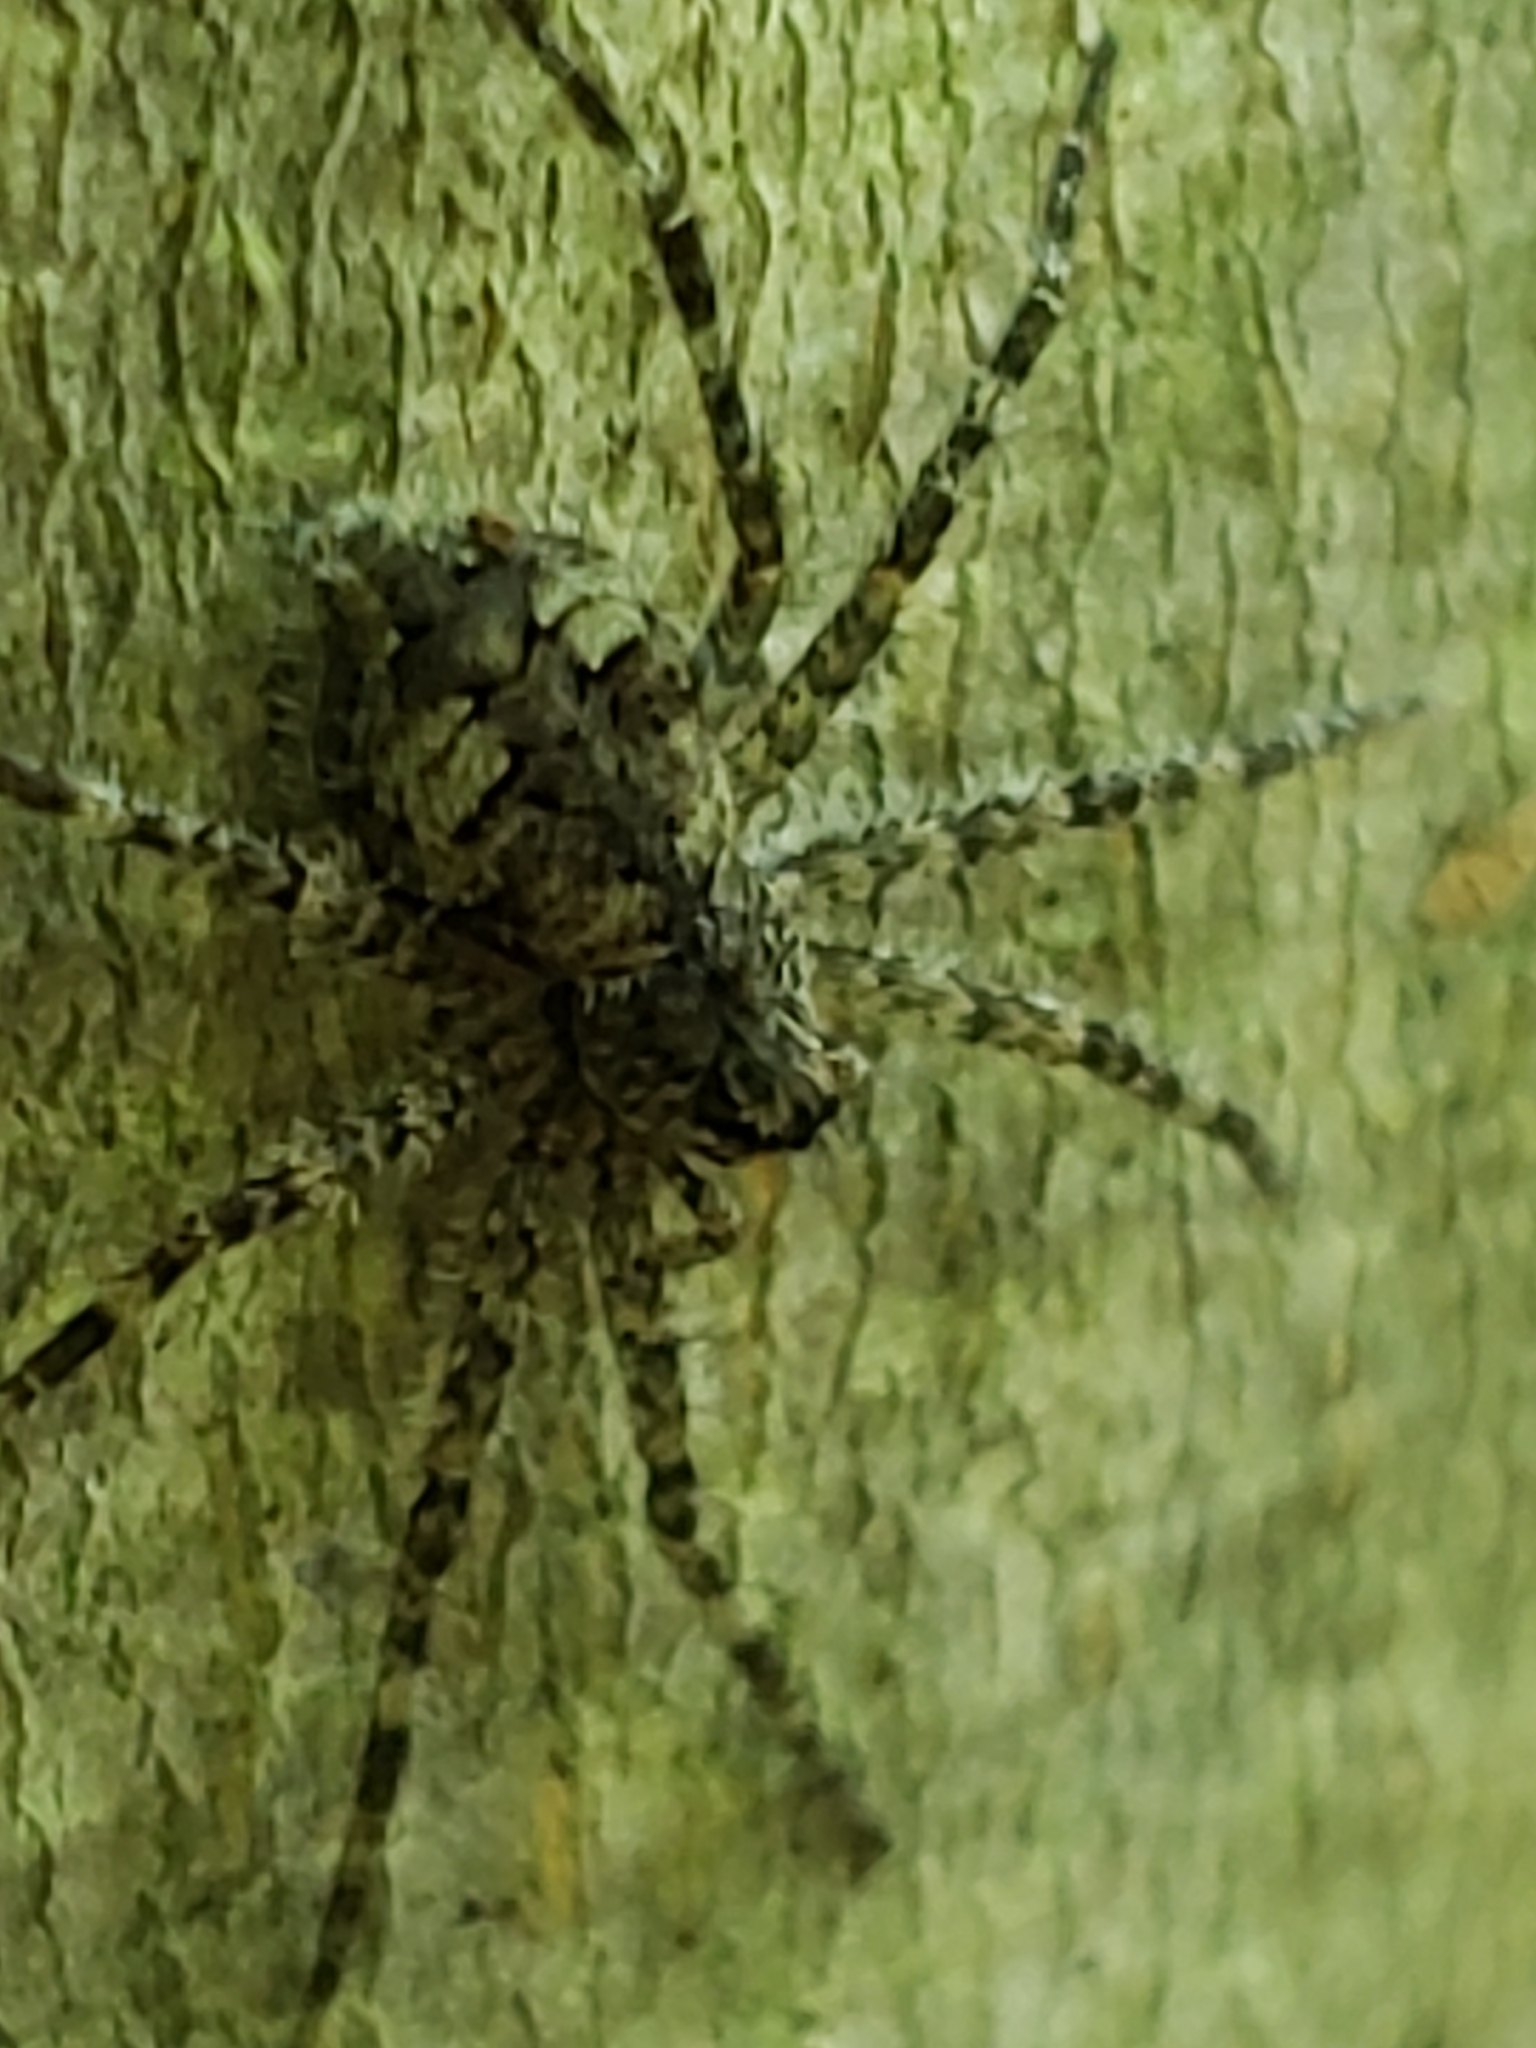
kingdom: Animalia
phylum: Arthropoda
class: Arachnida
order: Araneae
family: Pisauridae
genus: Dolomedes
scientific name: Dolomedes albineus
